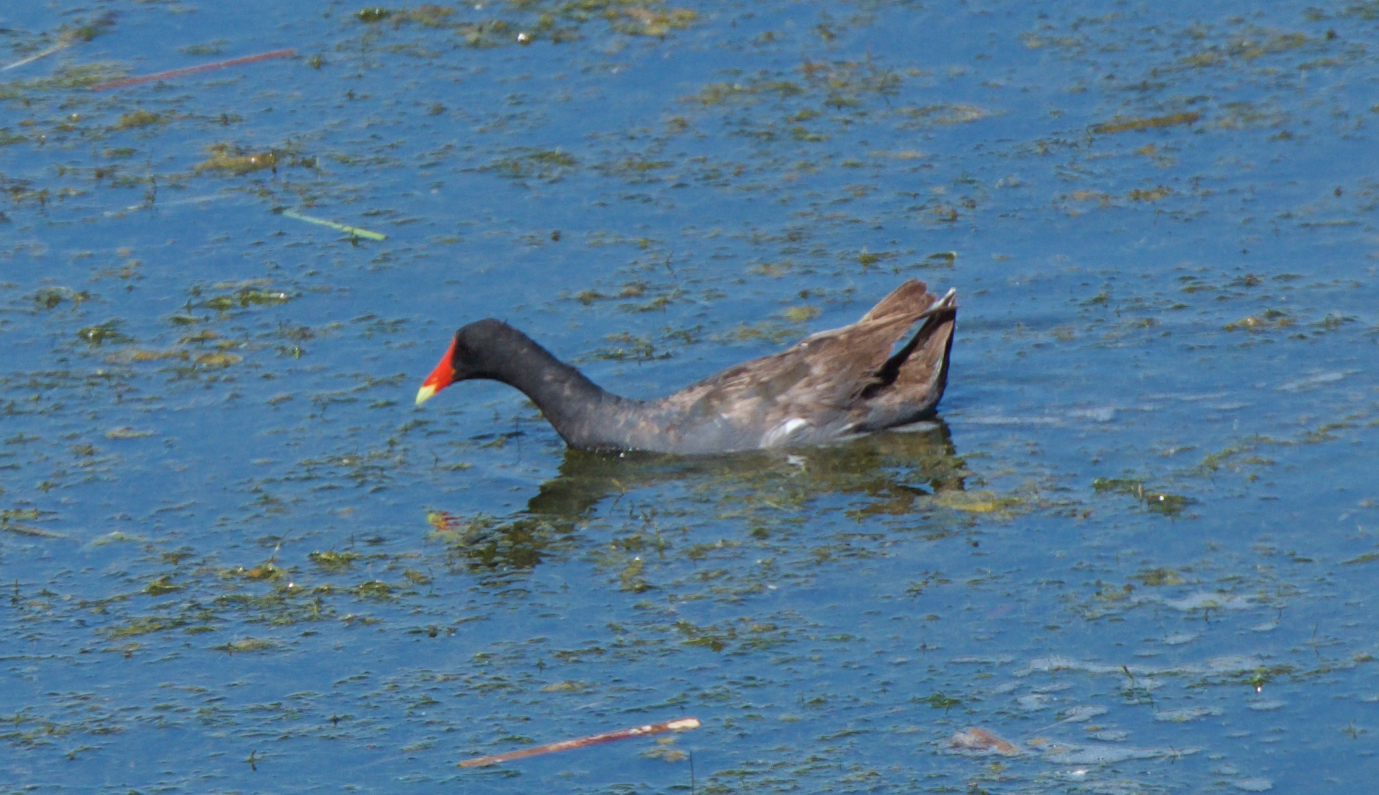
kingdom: Animalia
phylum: Chordata
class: Aves
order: Gruiformes
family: Rallidae
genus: Gallinula
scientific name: Gallinula chloropus
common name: Common moorhen
